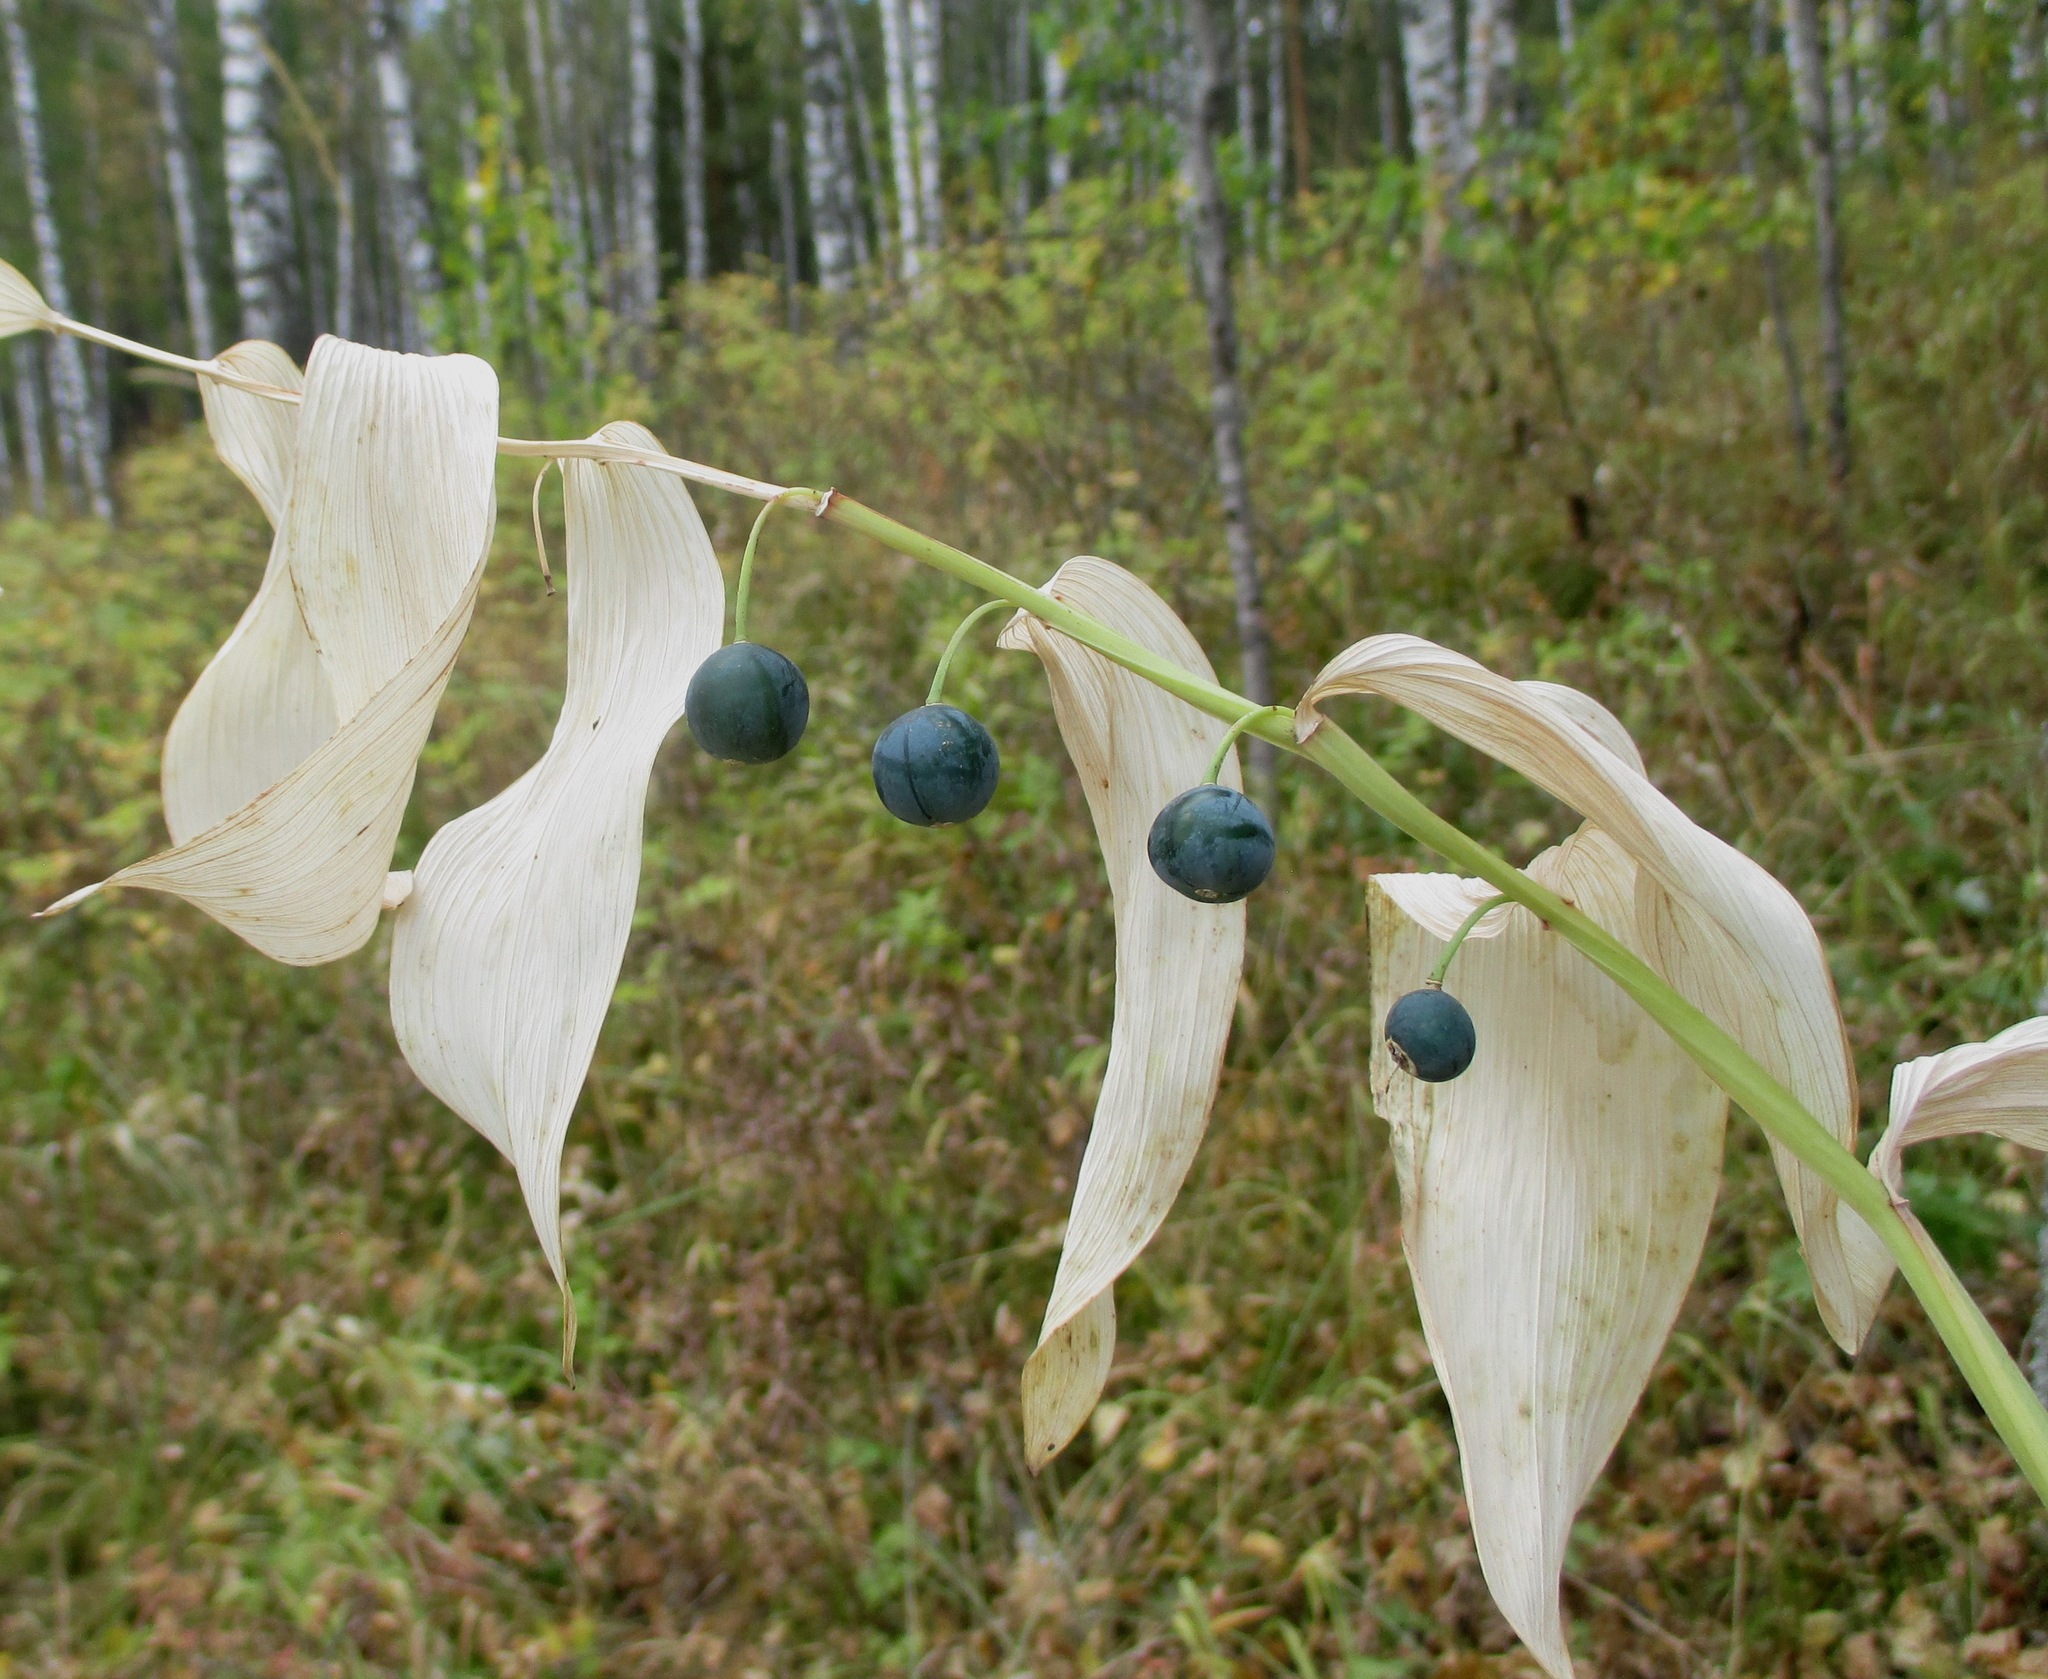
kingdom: Plantae
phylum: Tracheophyta
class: Liliopsida
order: Asparagales
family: Asparagaceae
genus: Polygonatum
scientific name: Polygonatum odoratum
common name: Angular solomon's-seal
